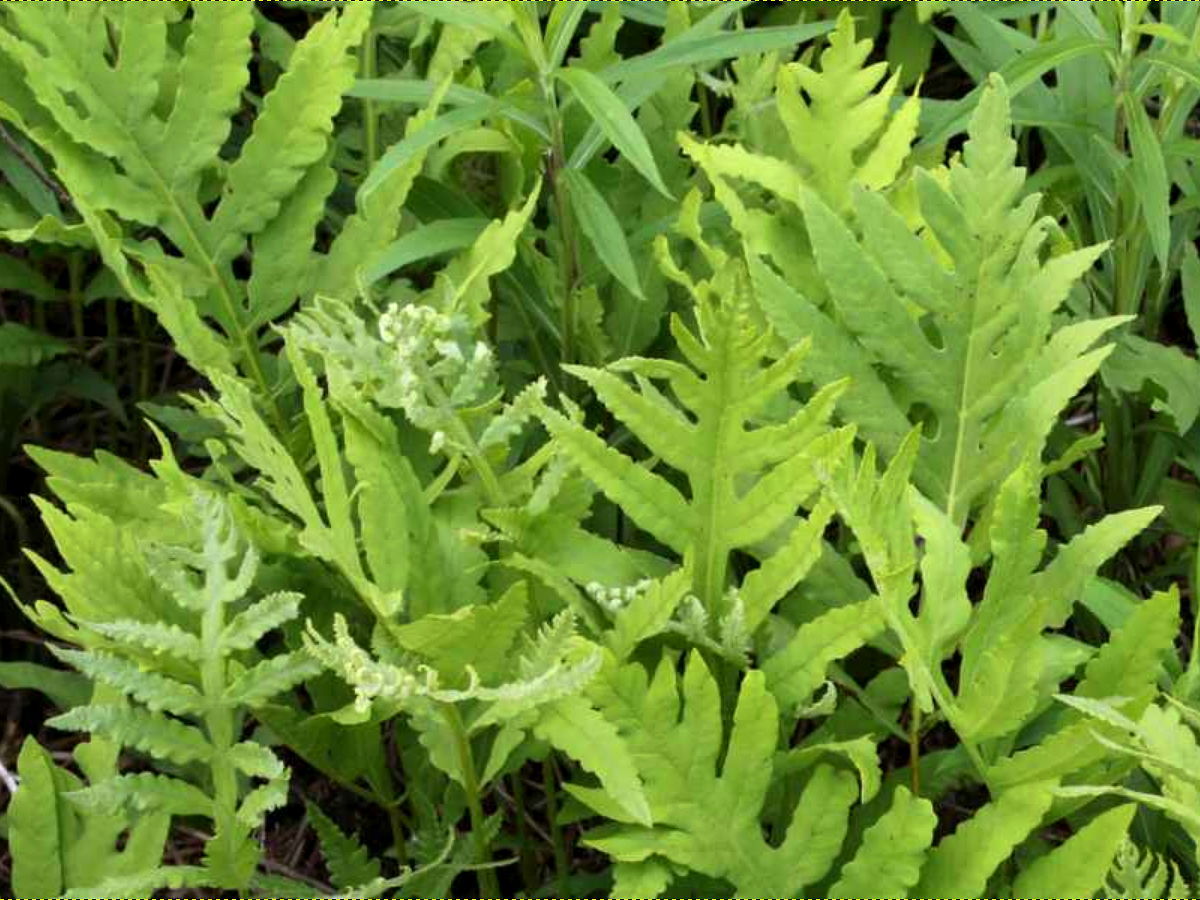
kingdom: Plantae
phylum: Tracheophyta
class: Polypodiopsida
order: Polypodiales
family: Onocleaceae
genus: Onoclea
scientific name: Onoclea sensibilis
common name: Sensitive fern
